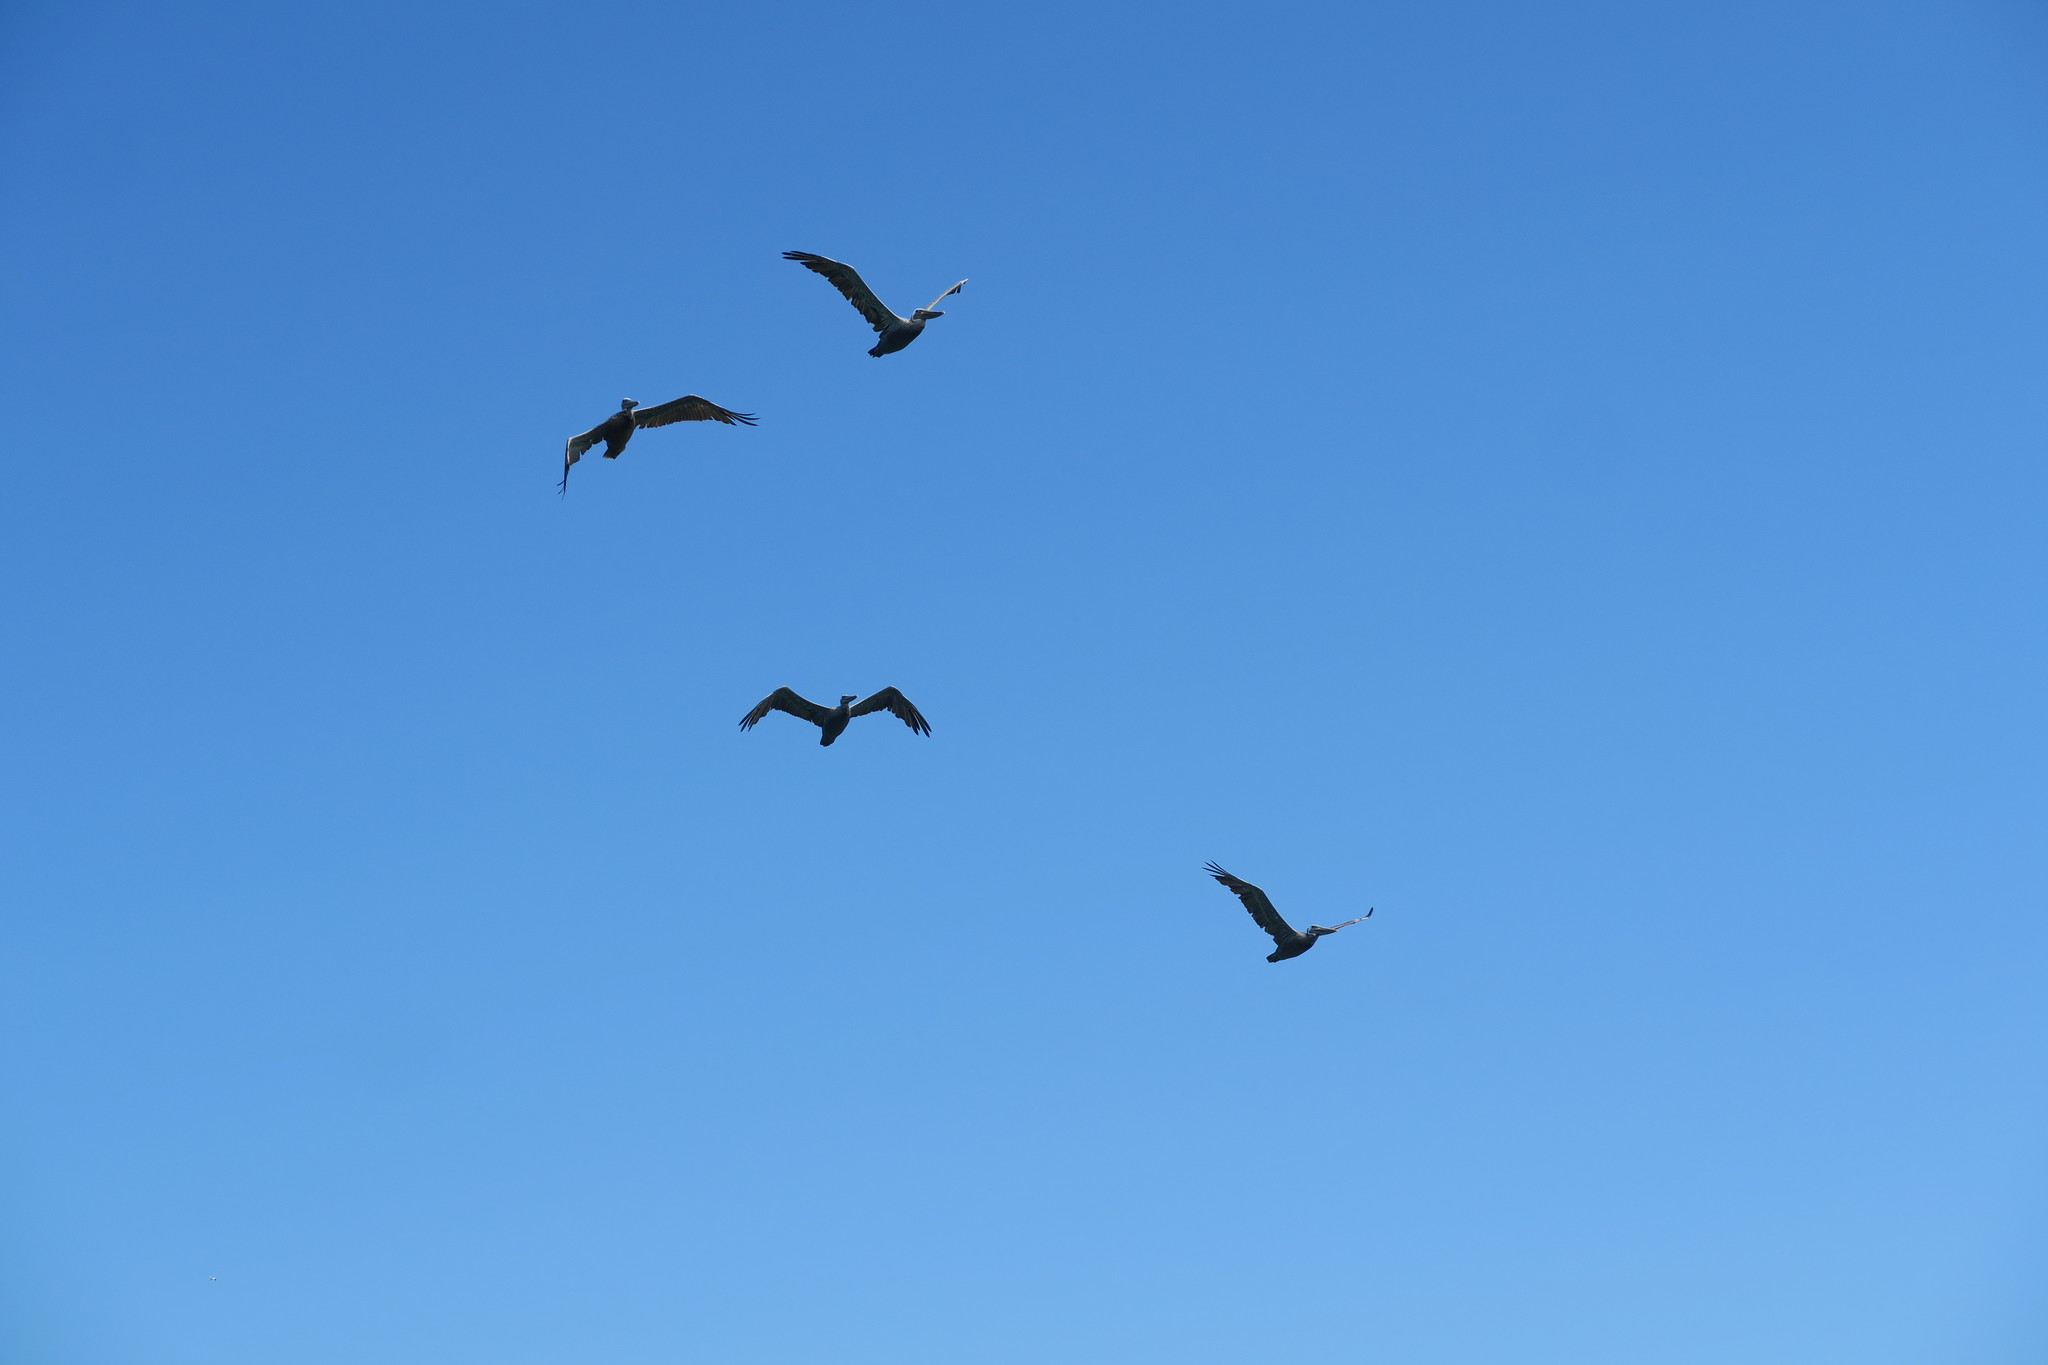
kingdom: Animalia
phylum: Chordata
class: Aves
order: Pelecaniformes
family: Pelecanidae
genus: Pelecanus
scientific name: Pelecanus occidentalis
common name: Brown pelican
